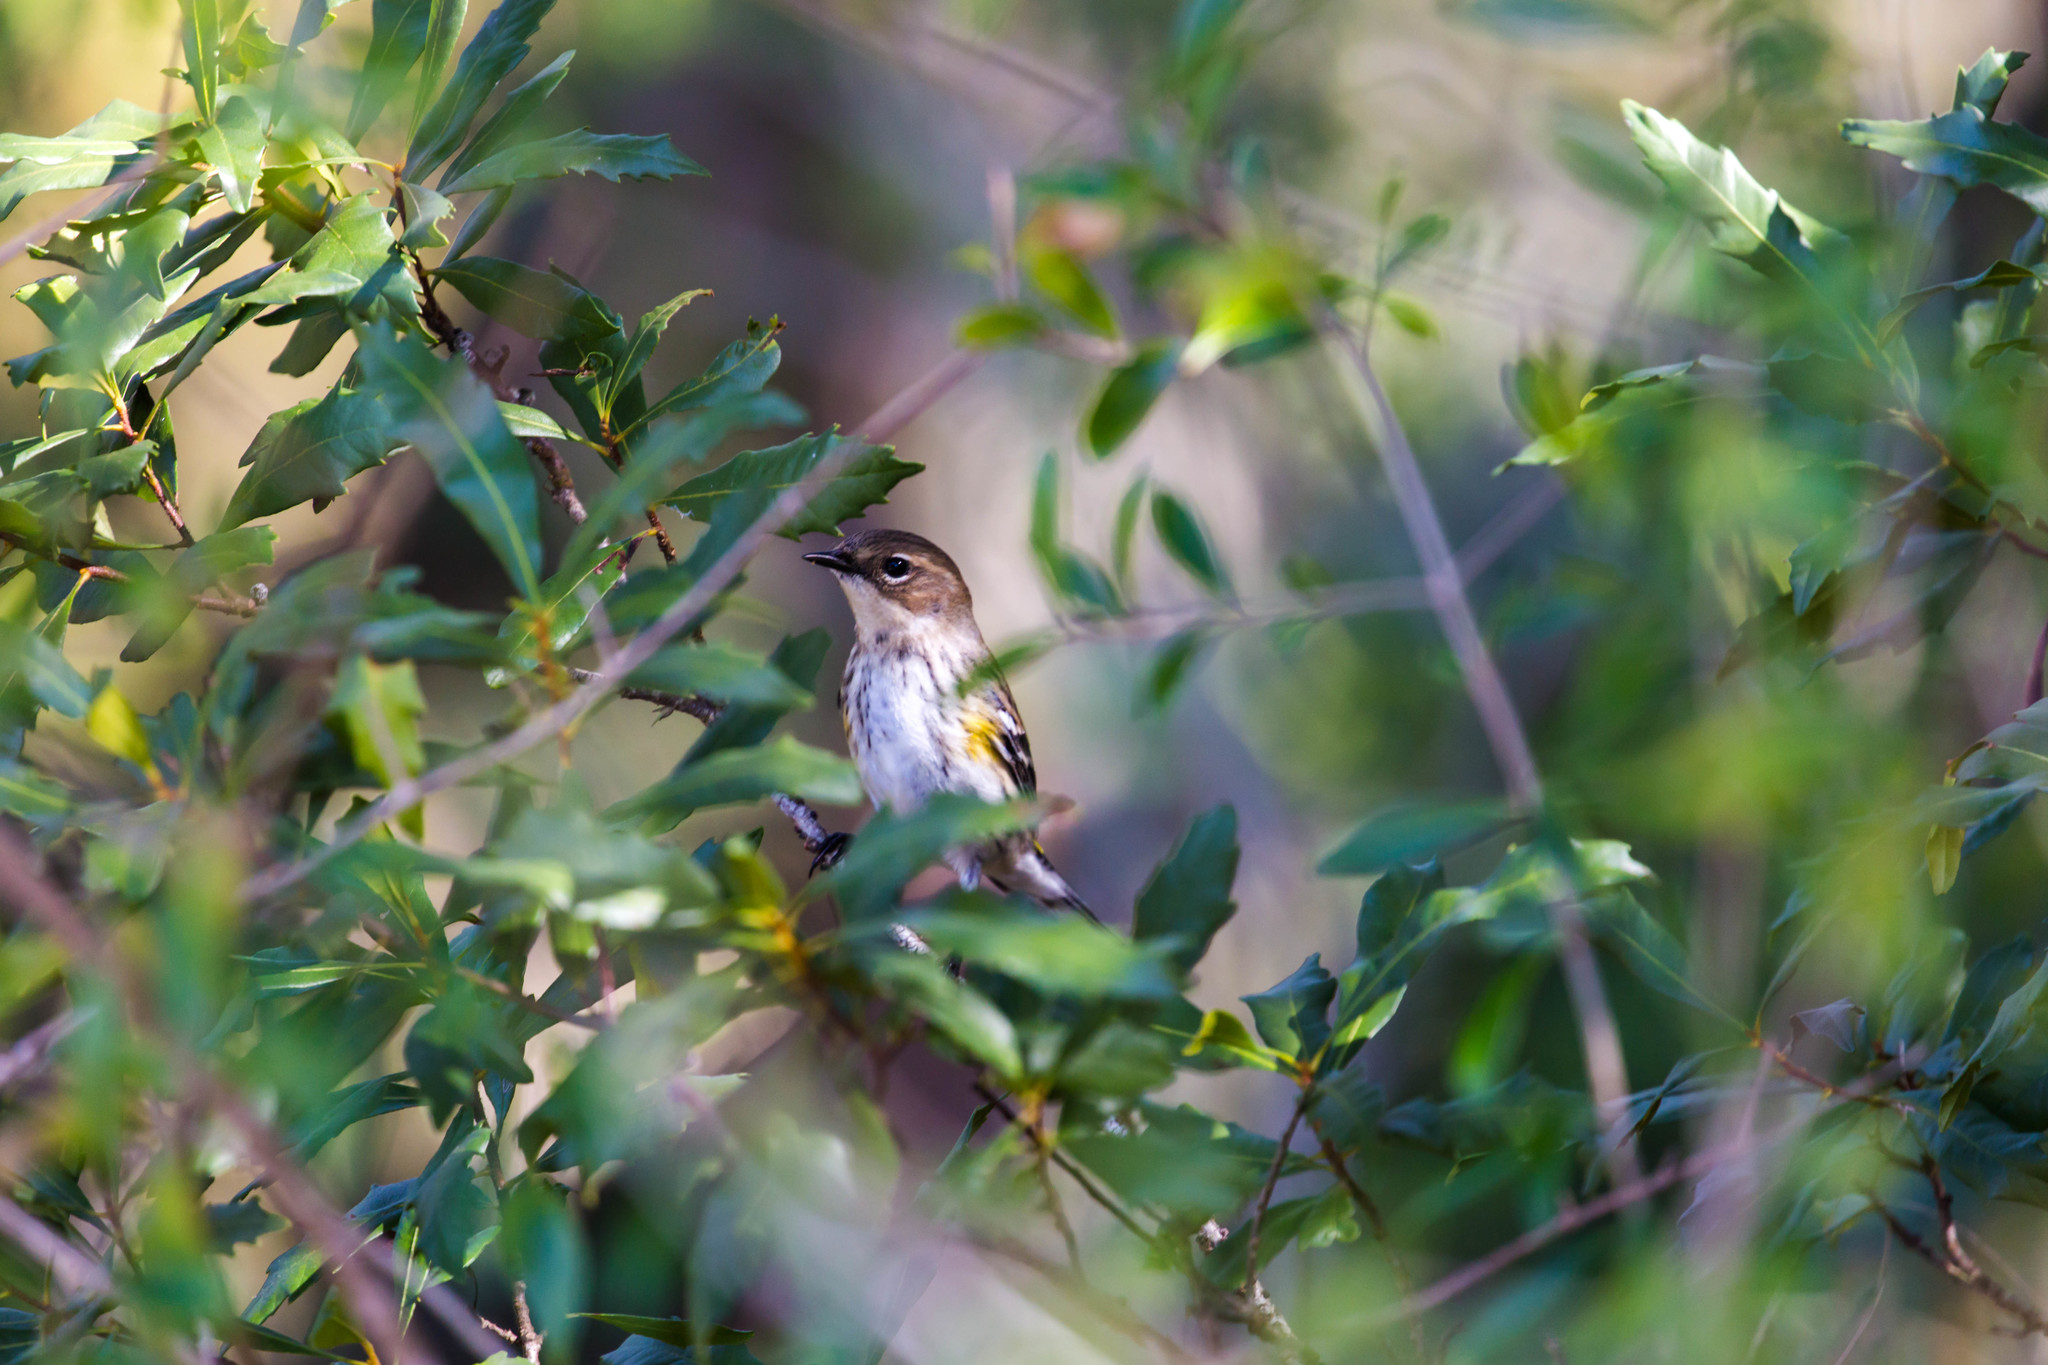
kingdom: Animalia
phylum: Chordata
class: Aves
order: Passeriformes
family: Parulidae
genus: Setophaga
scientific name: Setophaga coronata
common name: Myrtle warbler
